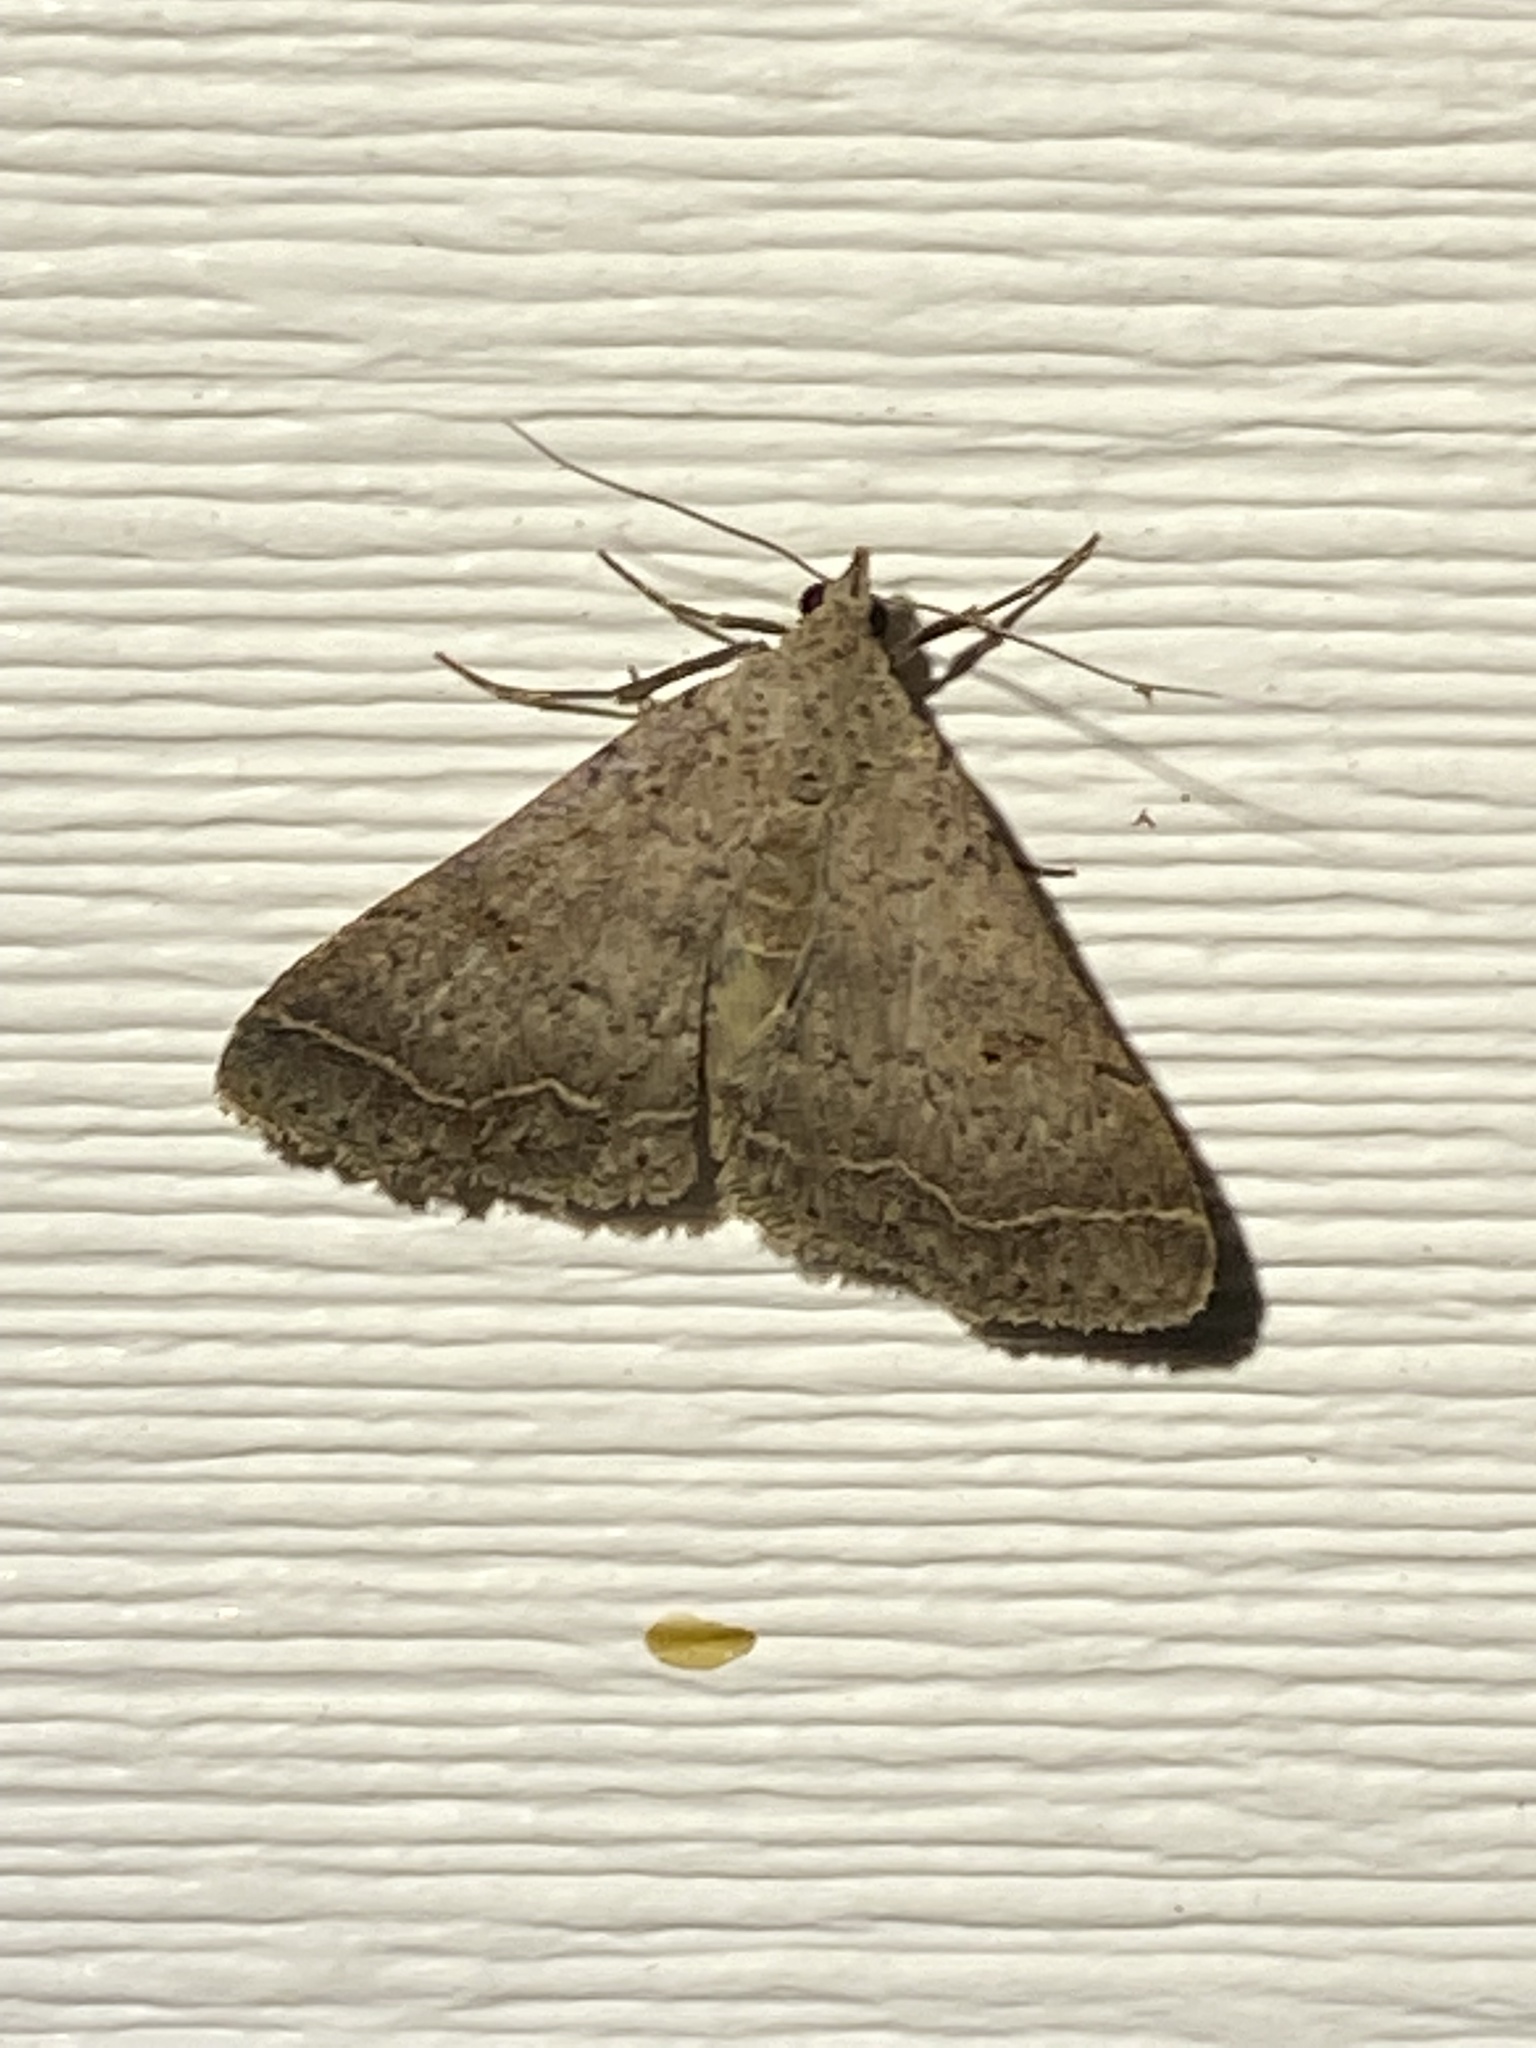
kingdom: Animalia
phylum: Arthropoda
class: Insecta
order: Lepidoptera
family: Erebidae
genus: Bleptina
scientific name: Bleptina caradrinalis
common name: Bent-winged owlet
